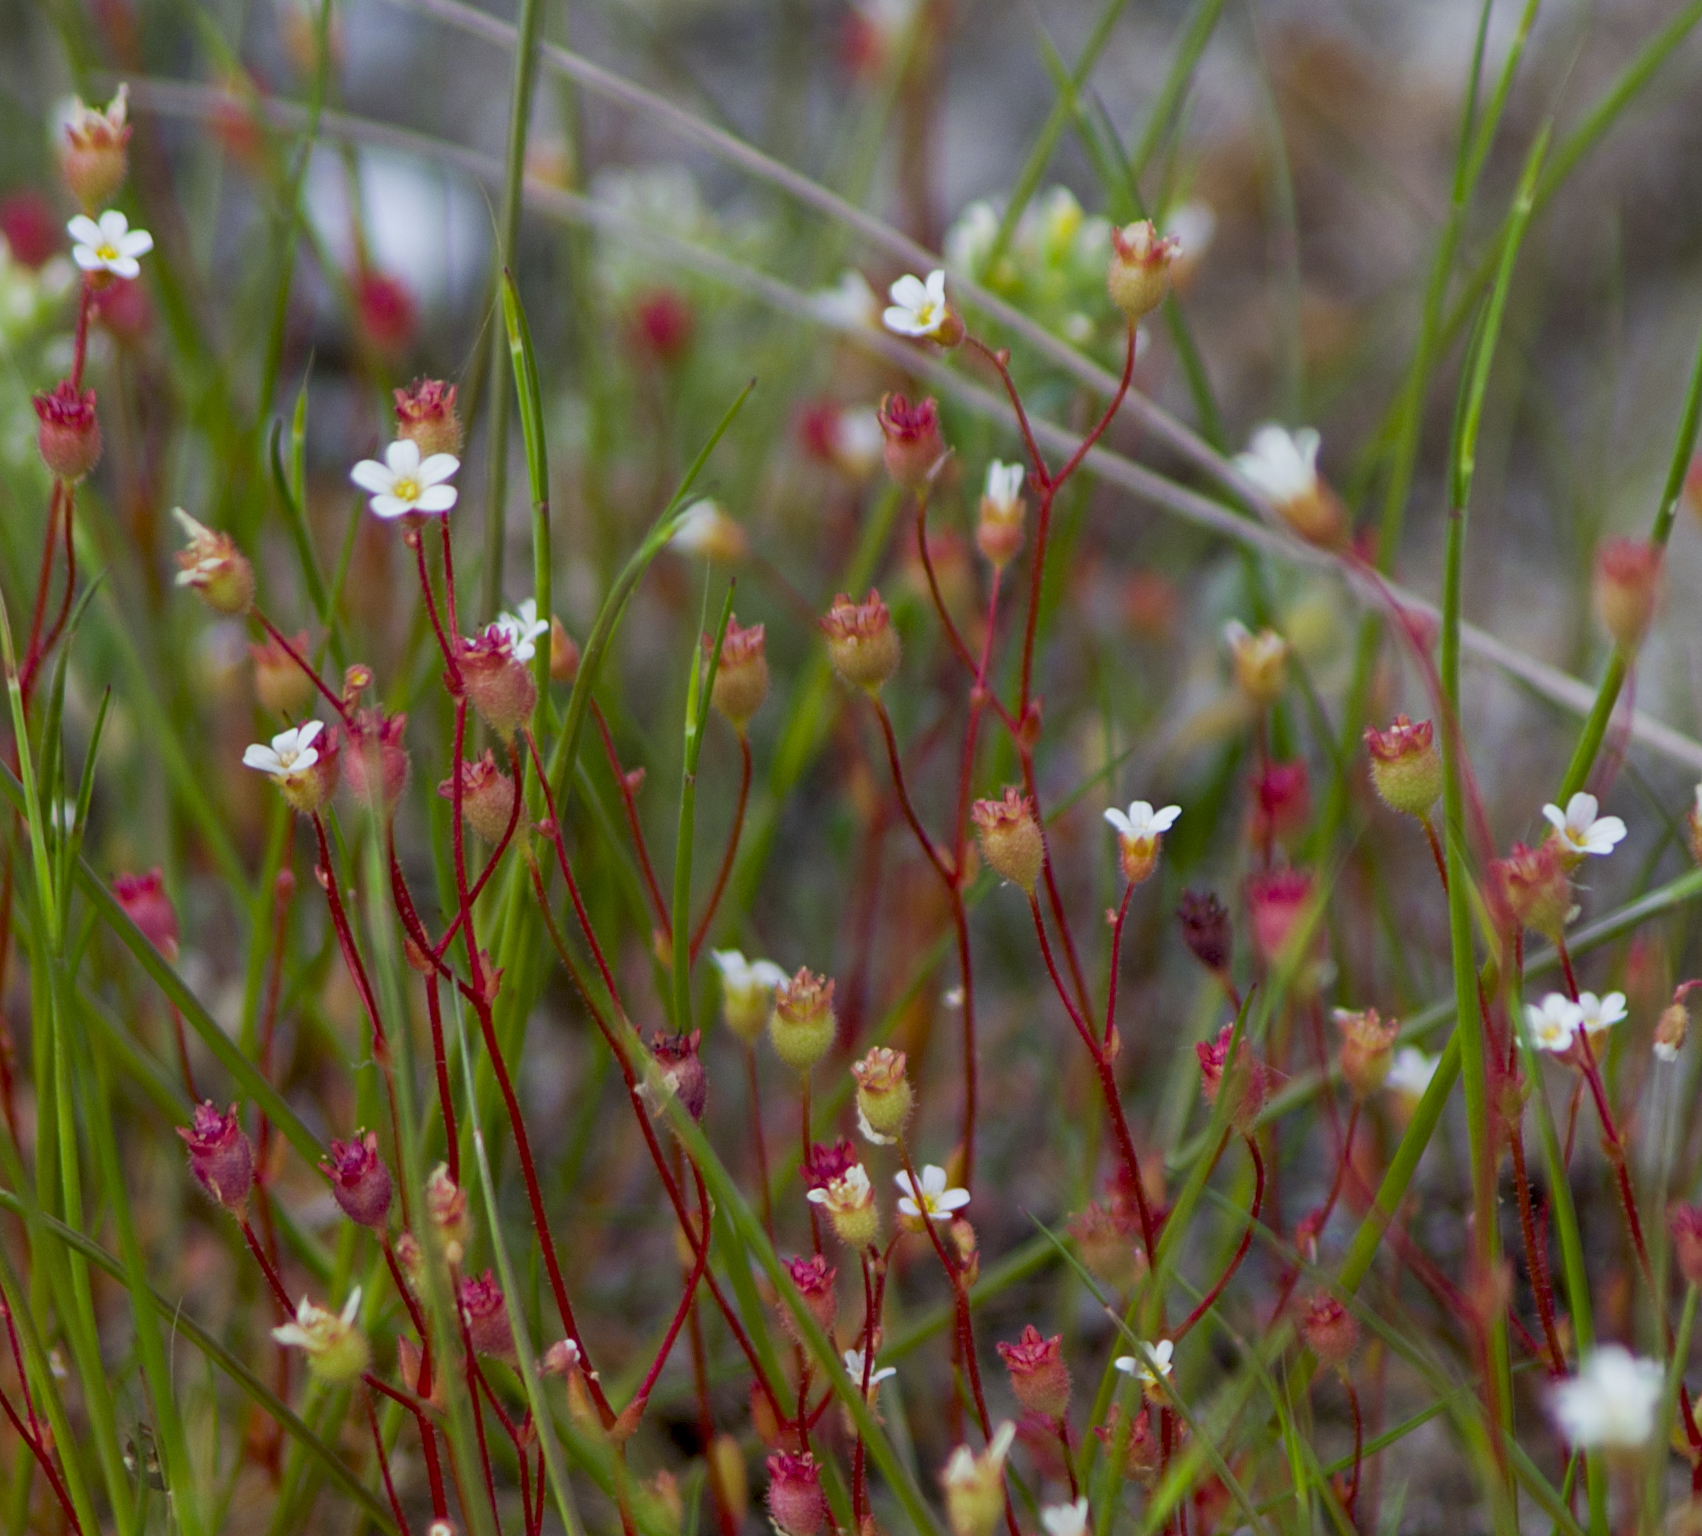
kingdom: Plantae
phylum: Tracheophyta
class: Magnoliopsida
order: Saxifragales
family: Saxifragaceae
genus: Saxifraga
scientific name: Saxifraga tridactylites
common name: Rue-leaved saxifrage
